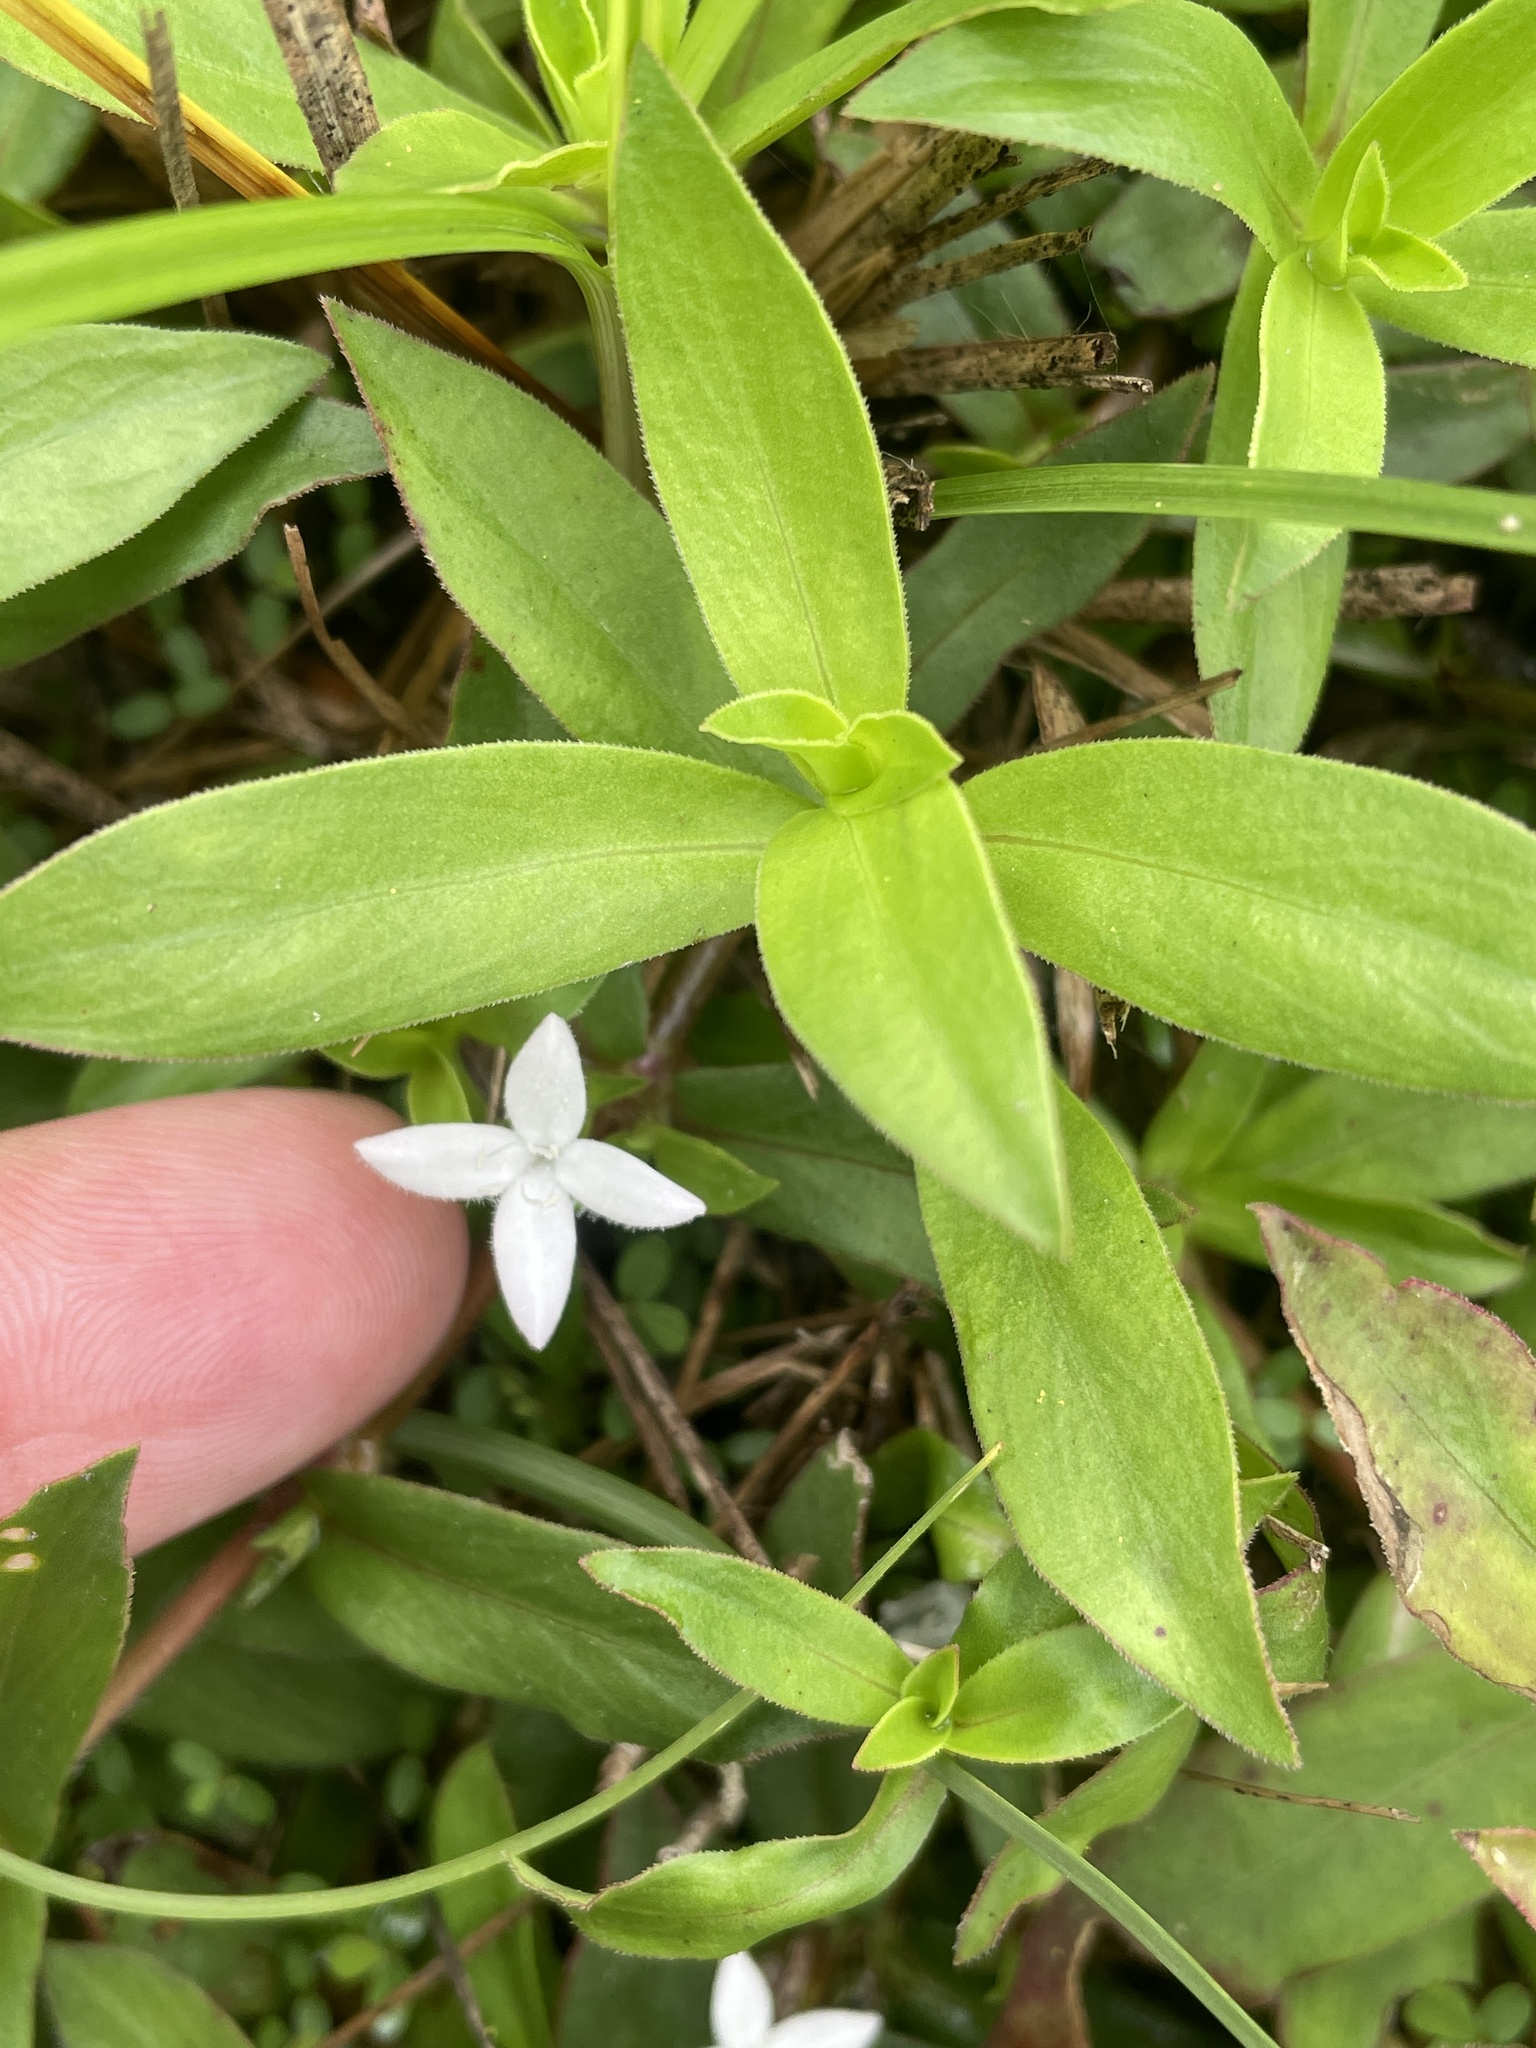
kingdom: Plantae
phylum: Tracheophyta
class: Magnoliopsida
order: Gentianales
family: Rubiaceae
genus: Diodia
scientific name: Diodia virginiana
